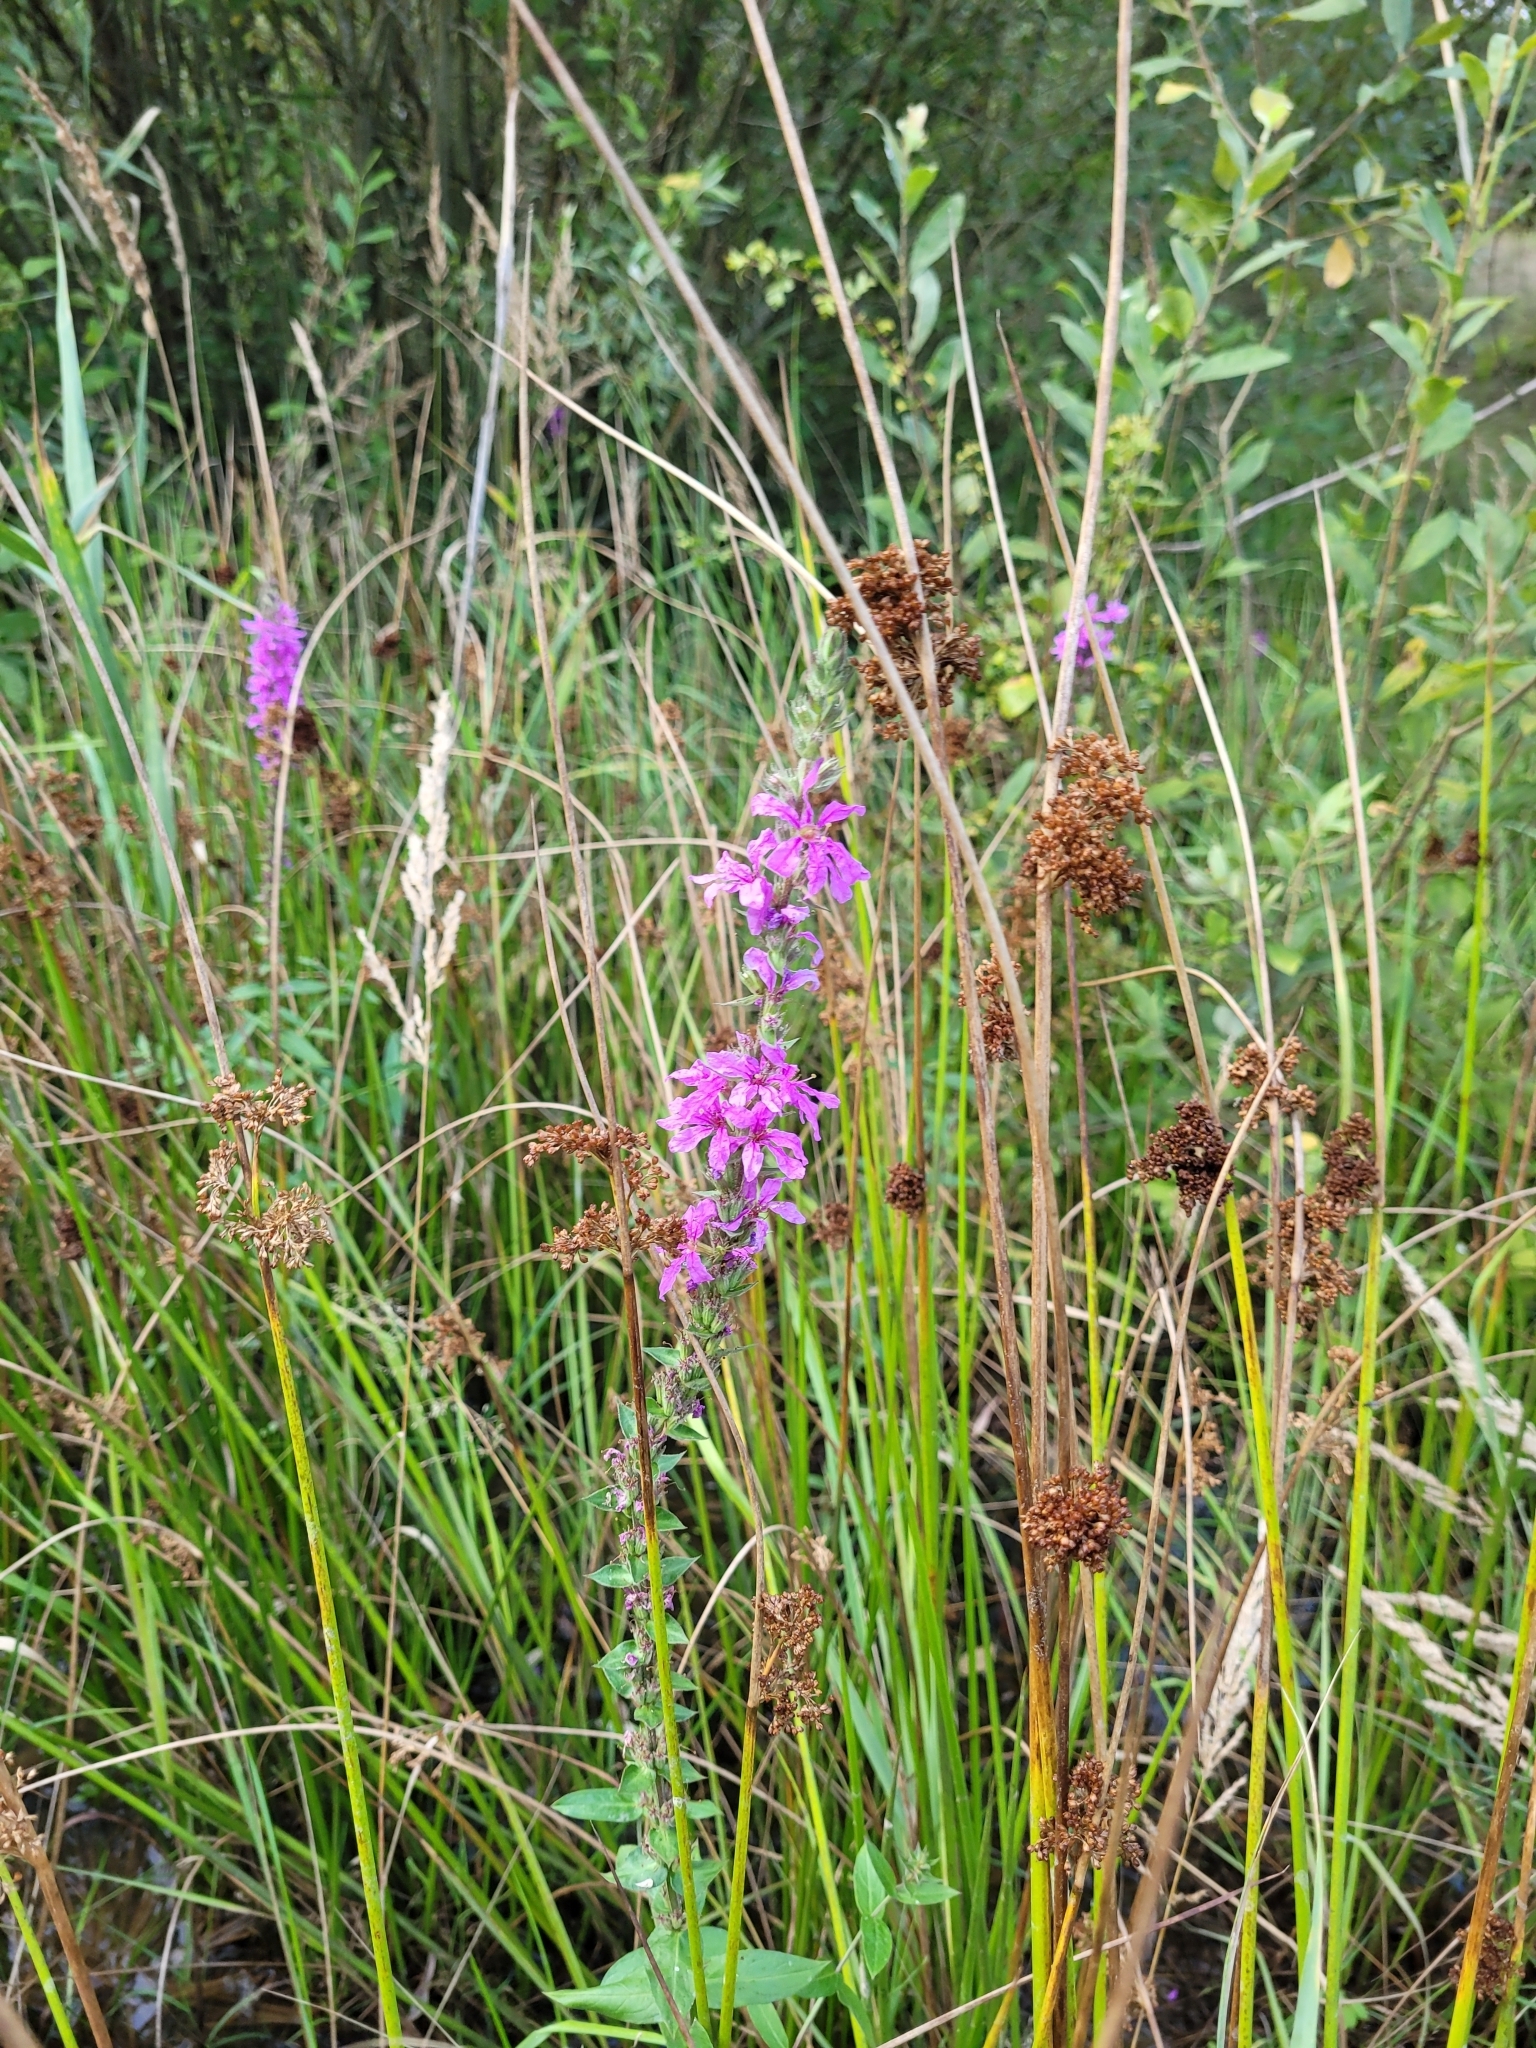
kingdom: Plantae
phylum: Tracheophyta
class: Magnoliopsida
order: Myrtales
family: Lythraceae
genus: Lythrum
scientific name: Lythrum salicaria
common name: Purple loosestrife
